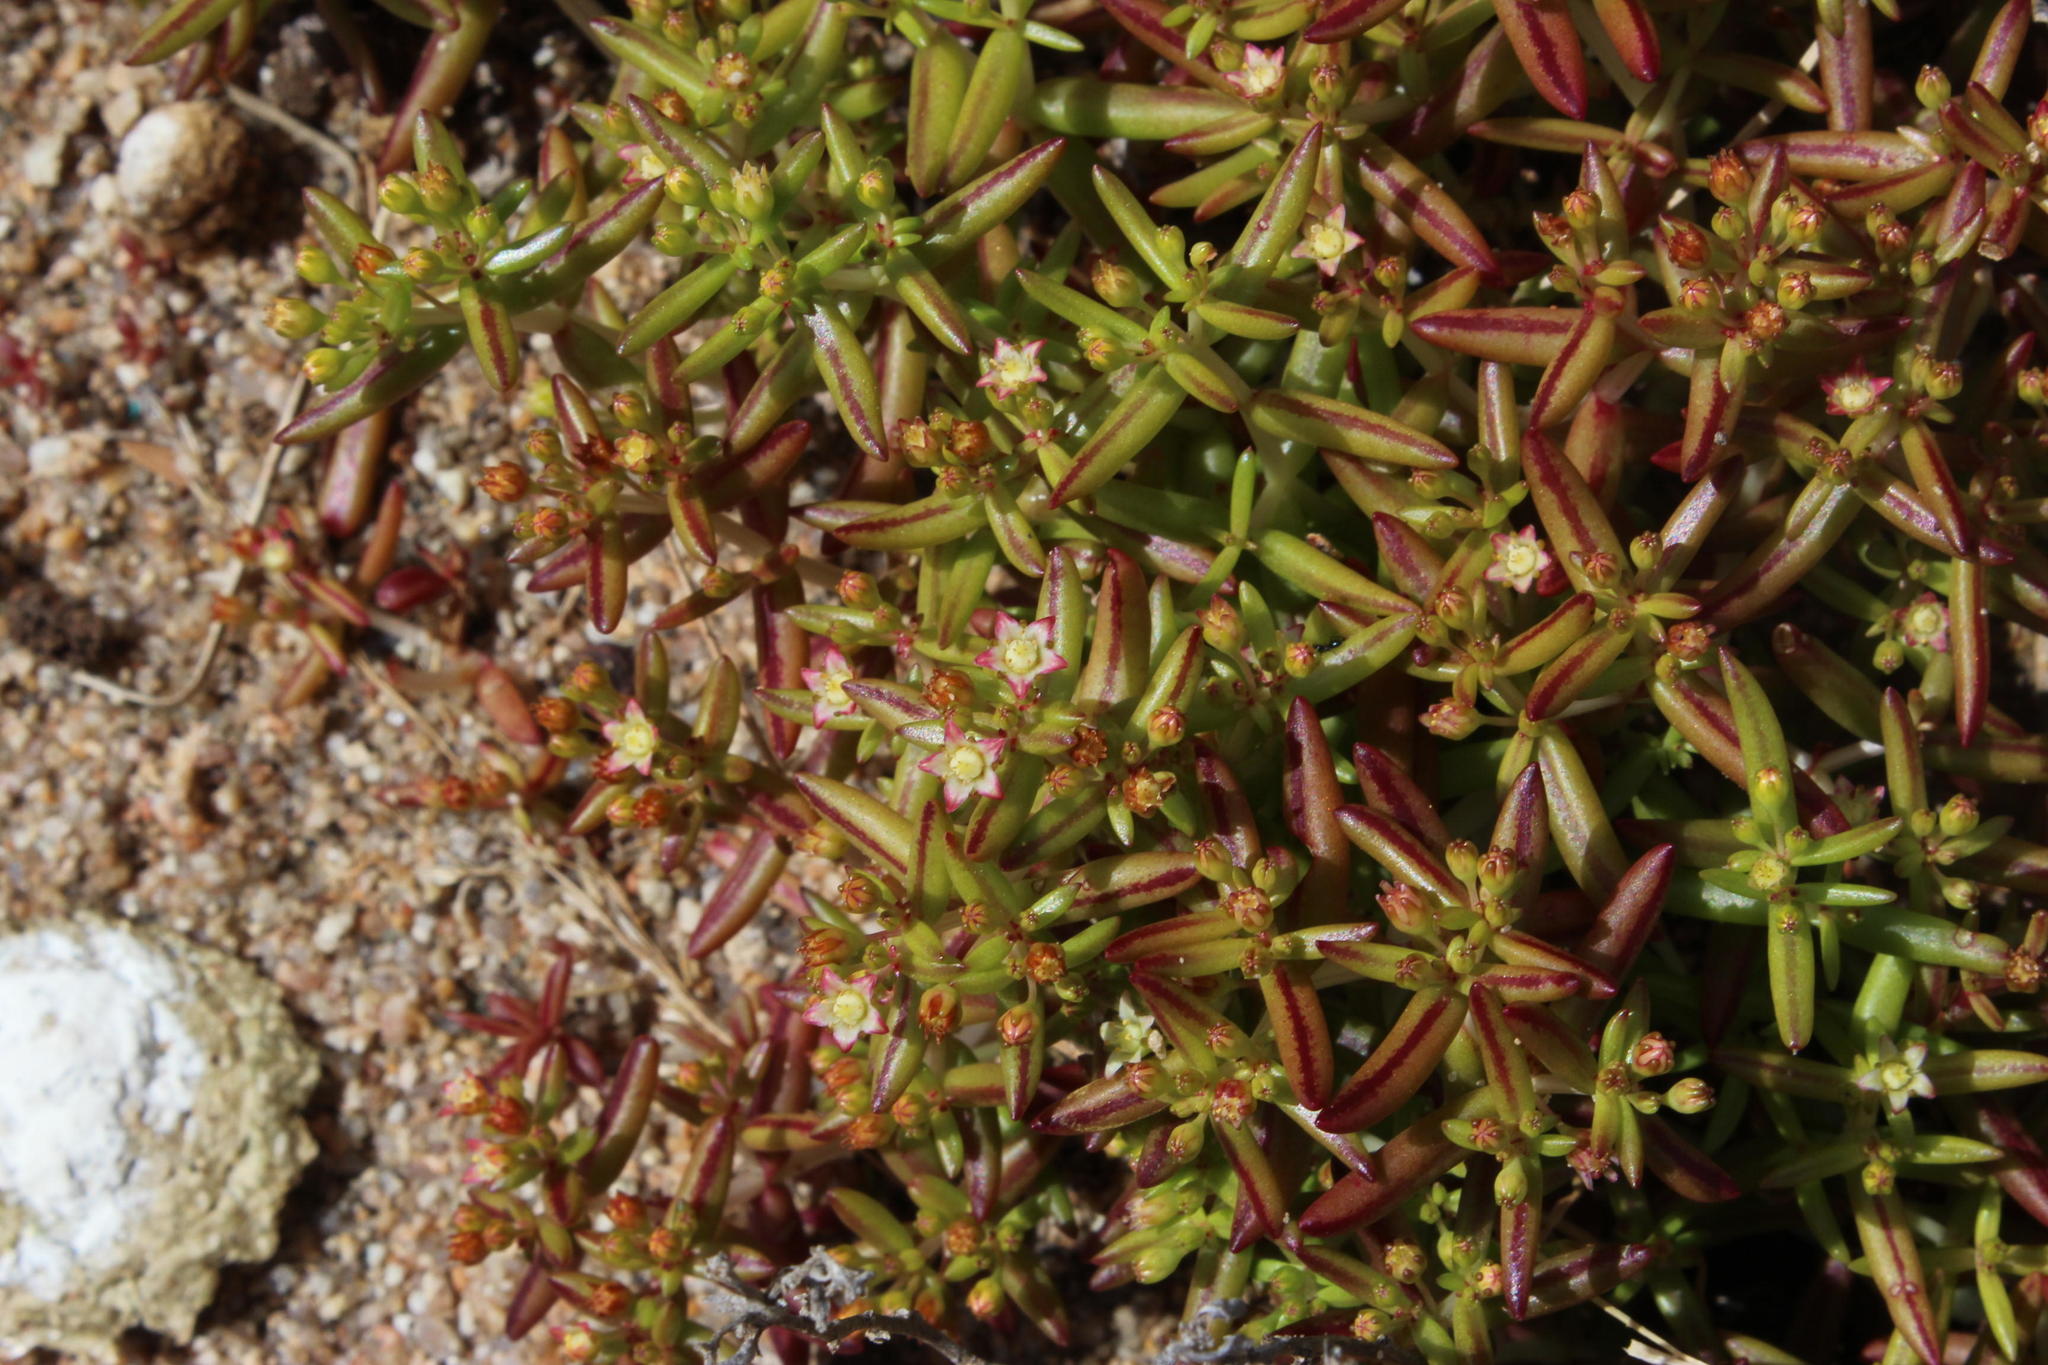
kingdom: Plantae
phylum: Tracheophyta
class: Magnoliopsida
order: Saxifragales
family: Crassulaceae
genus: Crassula
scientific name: Crassula expansa
